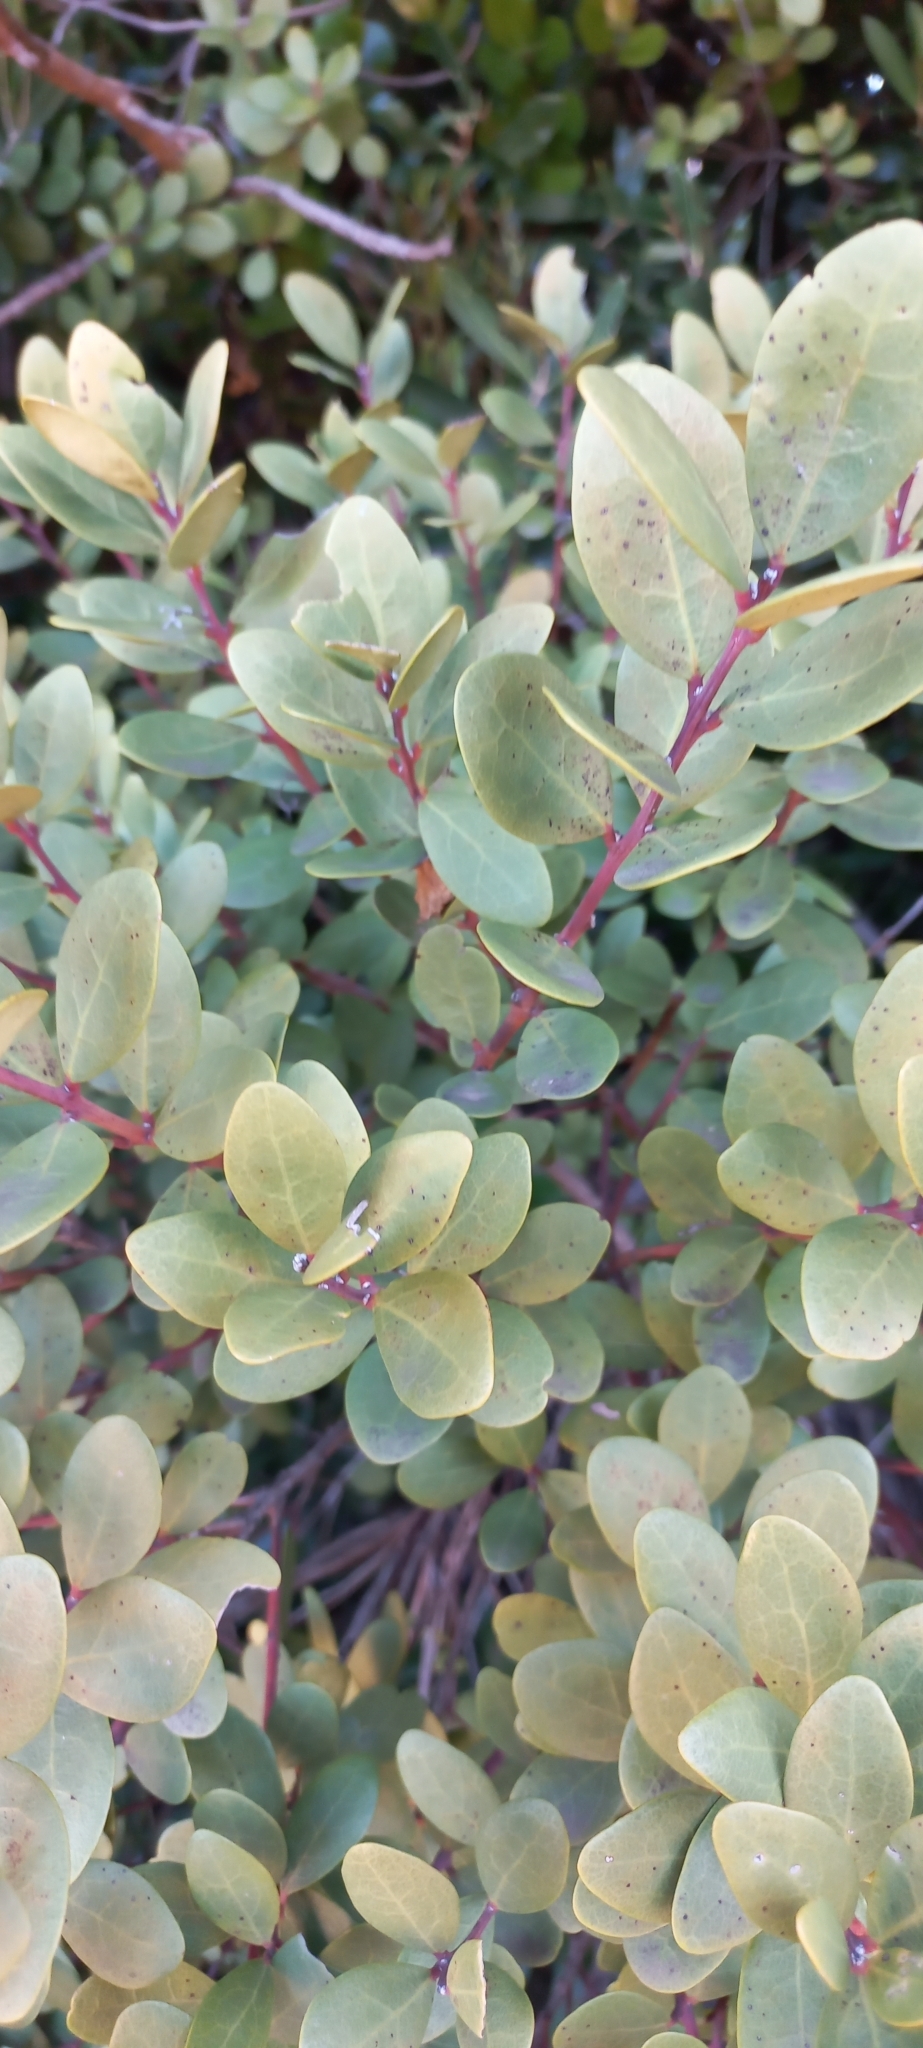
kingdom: Plantae
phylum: Tracheophyta
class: Magnoliopsida
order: Ericales
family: Ebenaceae
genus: Euclea
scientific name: Euclea racemosa
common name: Dune guarri
